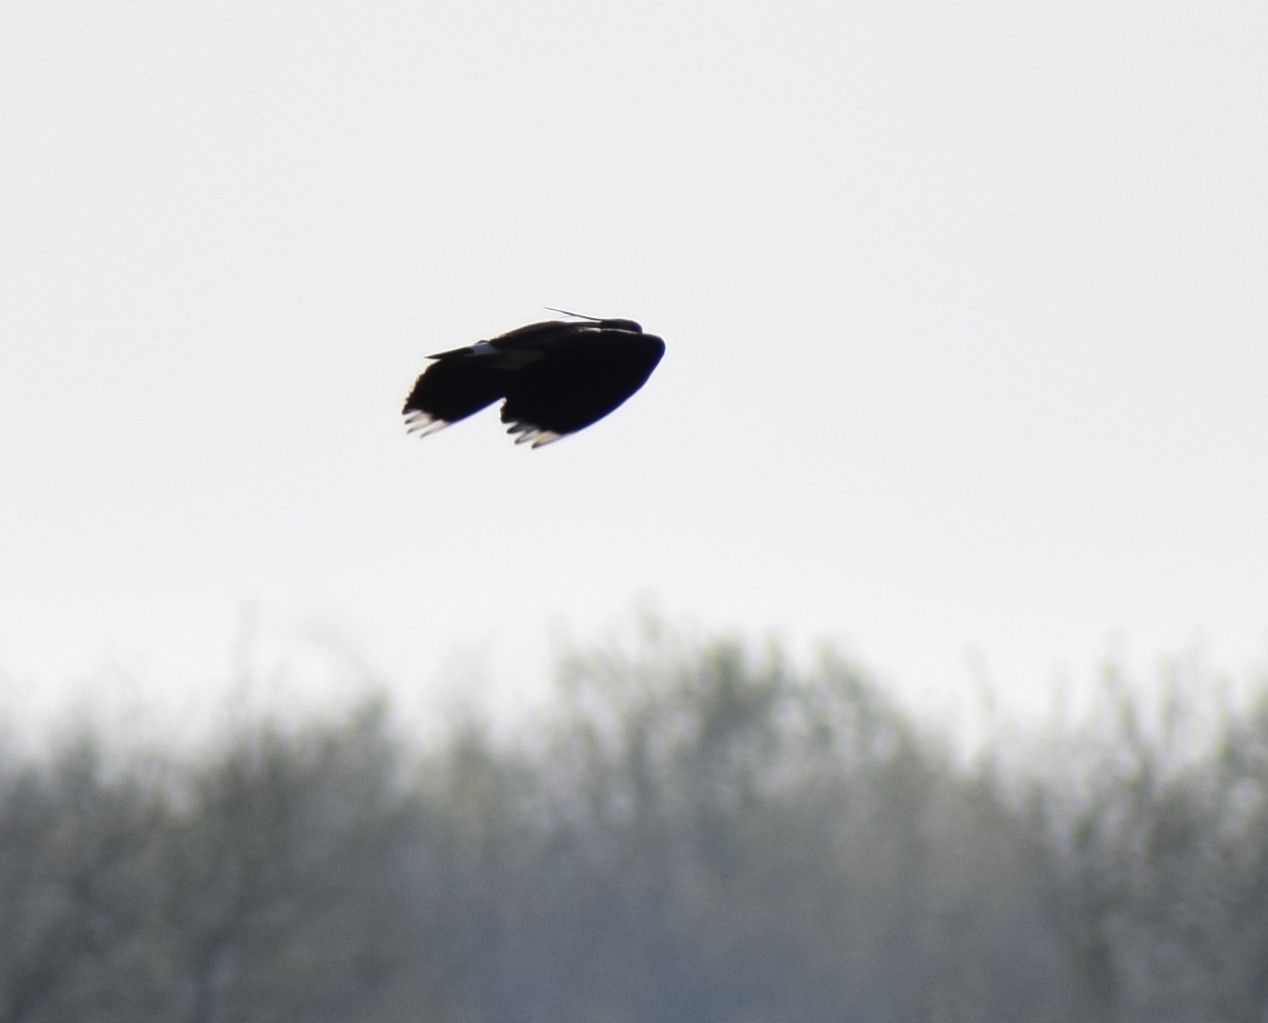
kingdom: Animalia
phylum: Chordata
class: Aves
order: Charadriiformes
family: Charadriidae
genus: Vanellus
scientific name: Vanellus vanellus
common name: Northern lapwing
